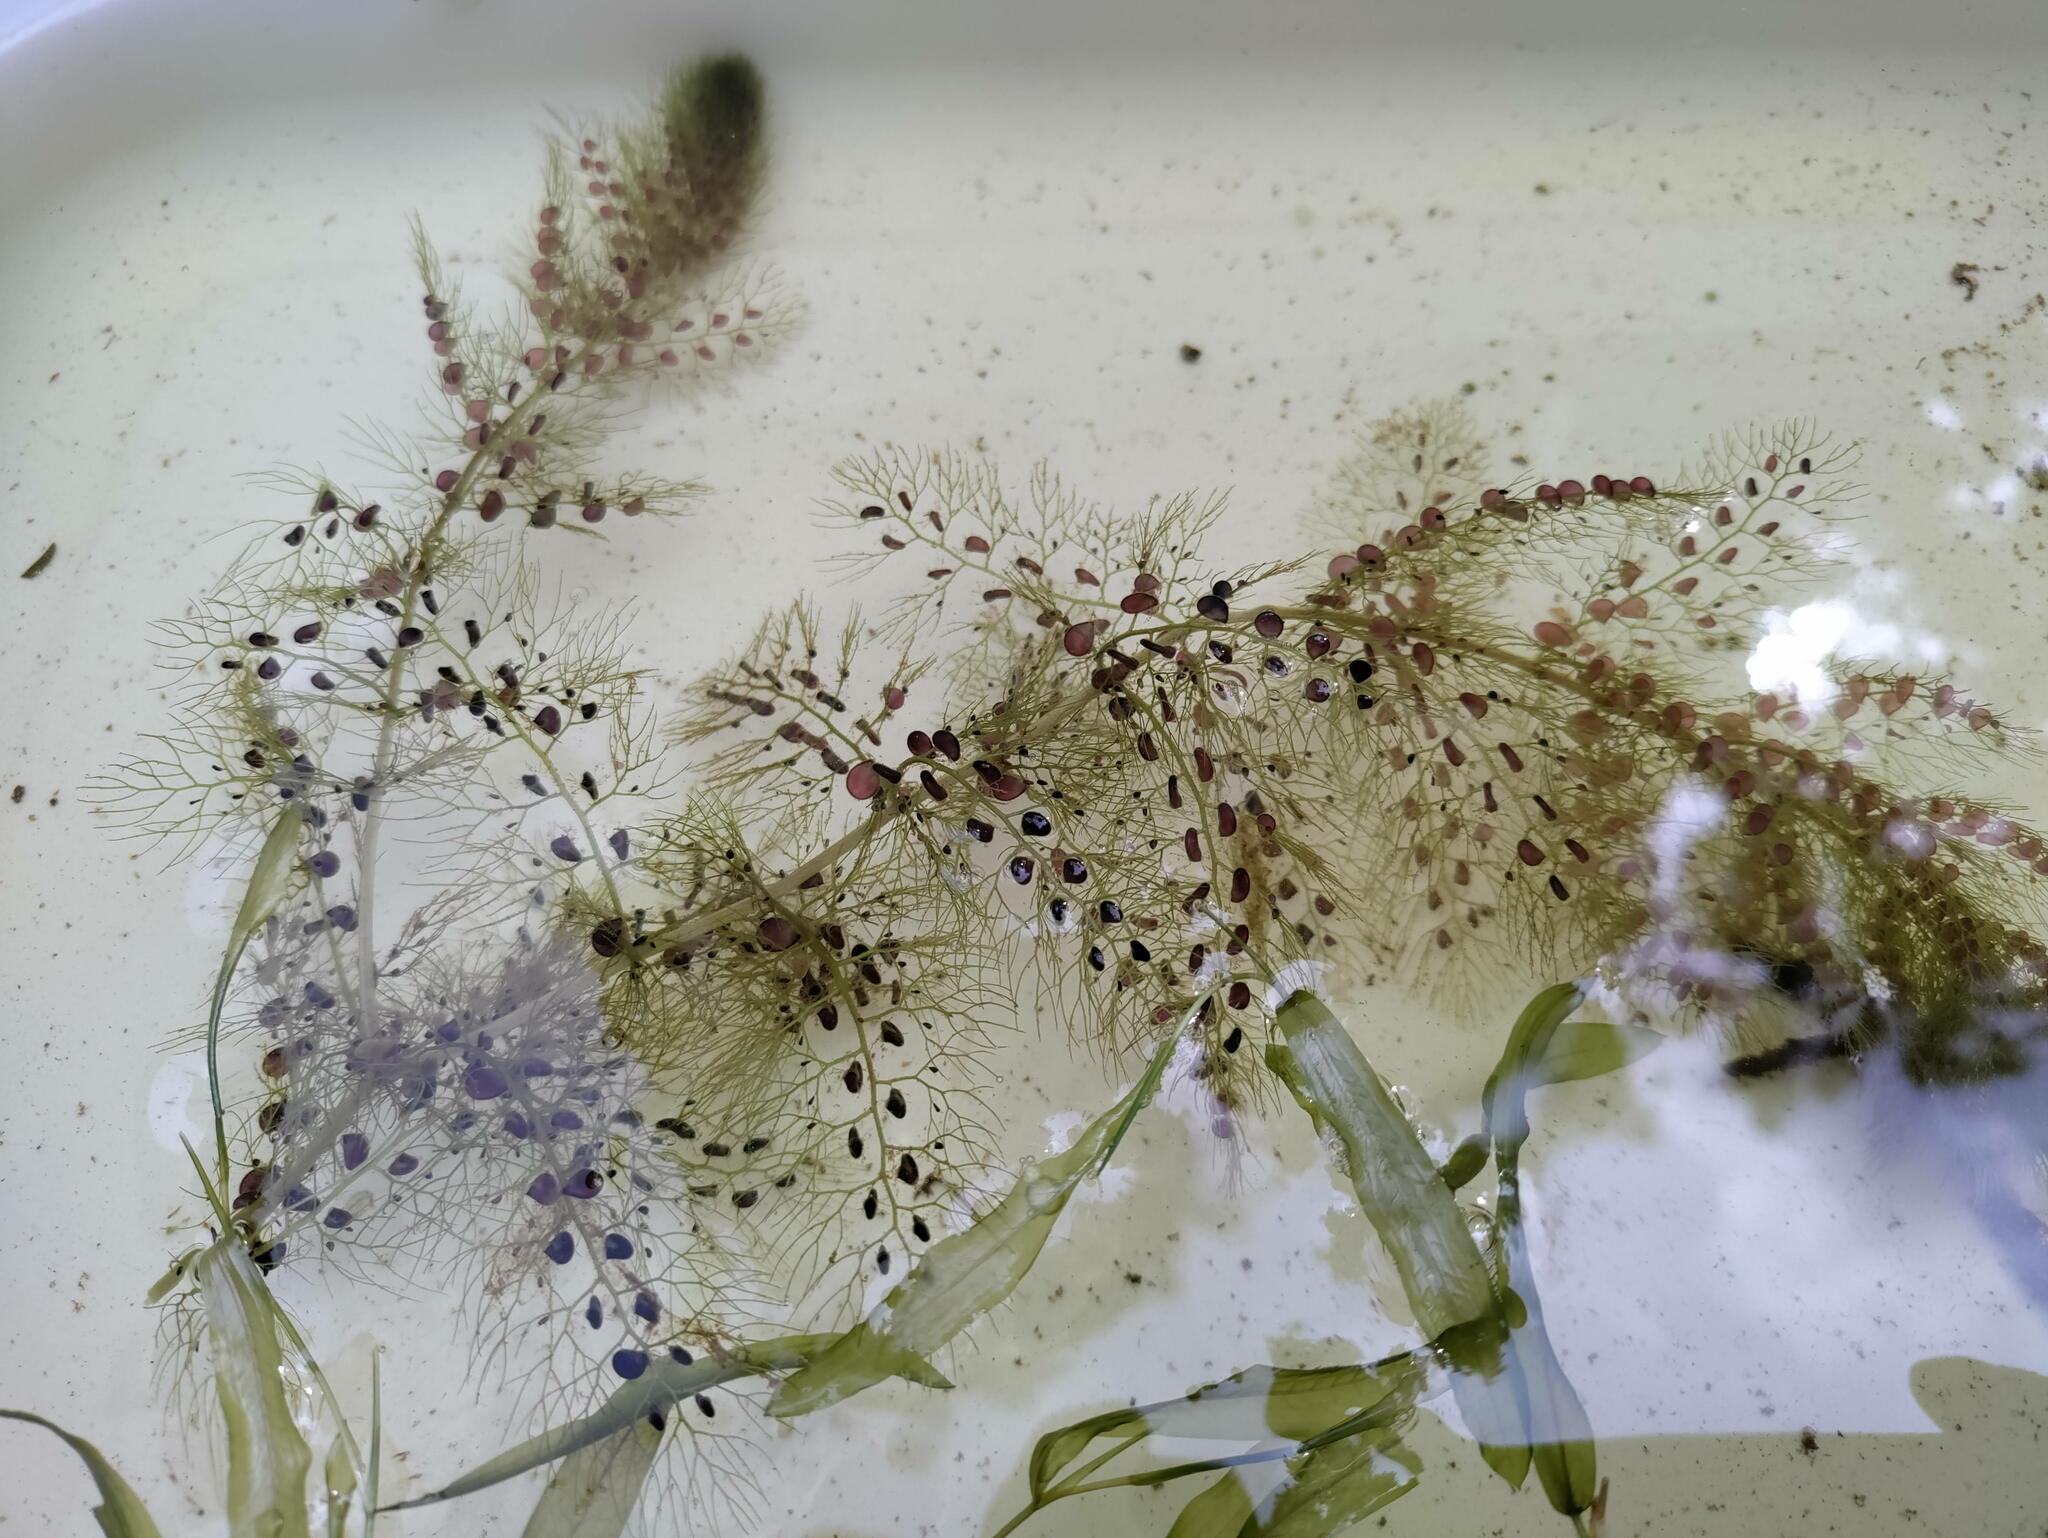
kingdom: Plantae
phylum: Tracheophyta
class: Magnoliopsida
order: Lamiales
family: Lentibulariaceae
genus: Utricularia
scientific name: Utricularia macrorhiza
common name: Common bladderwort
